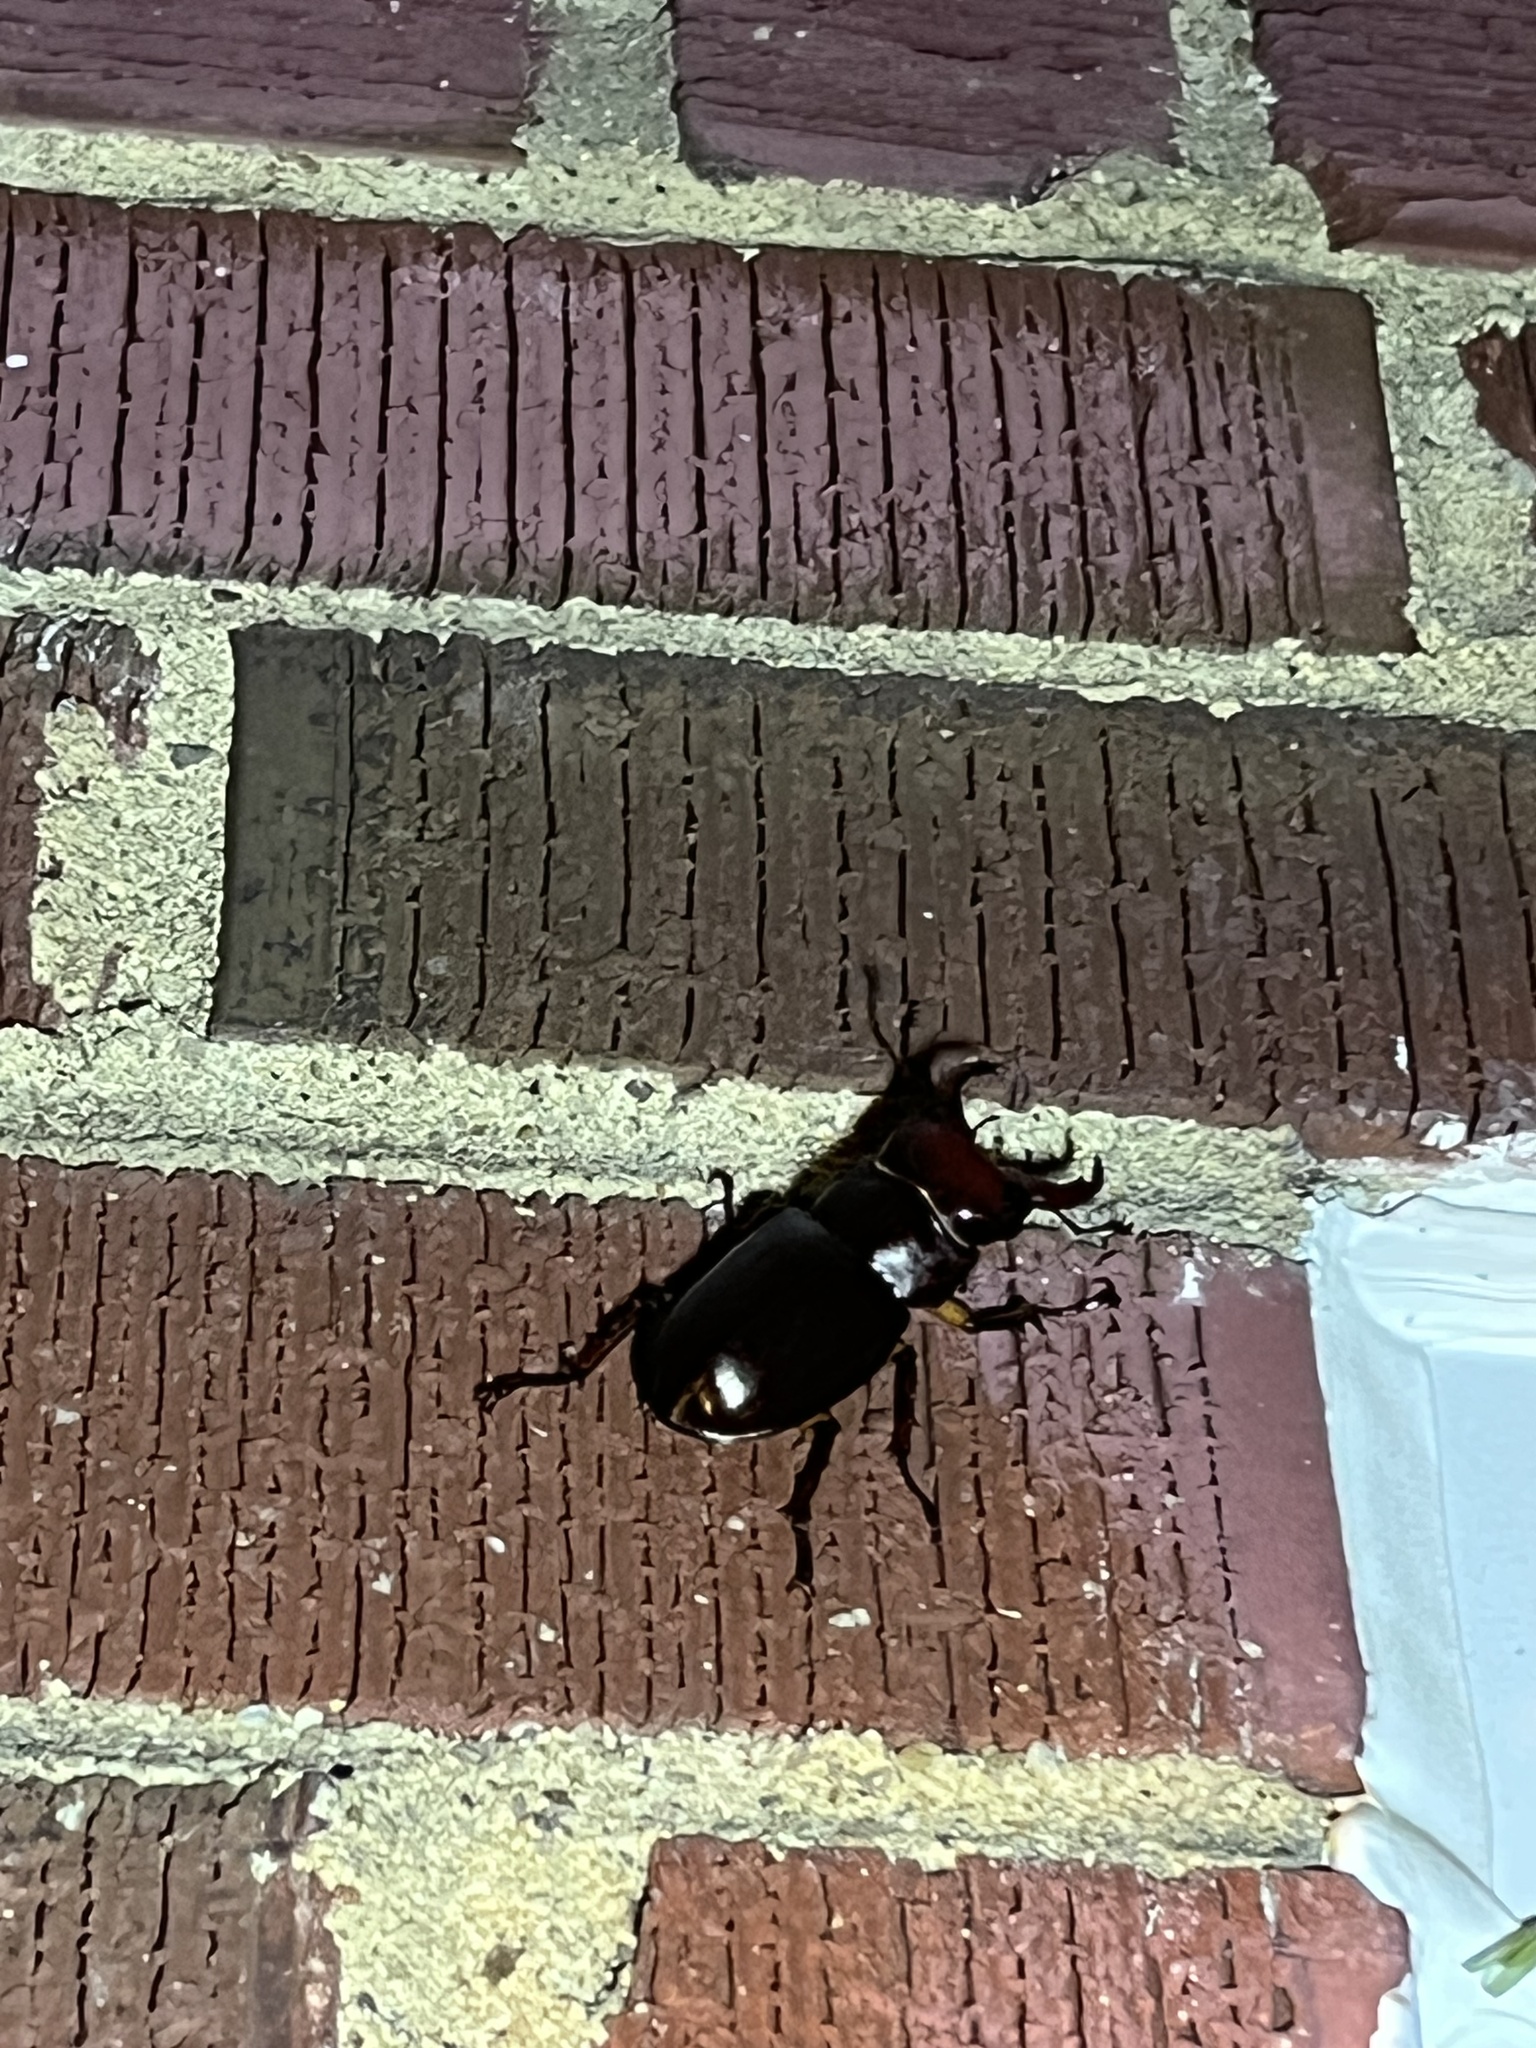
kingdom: Animalia
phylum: Arthropoda
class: Insecta
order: Coleoptera
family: Lucanidae
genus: Lucanus
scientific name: Lucanus capreolus
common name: Stag beetle
